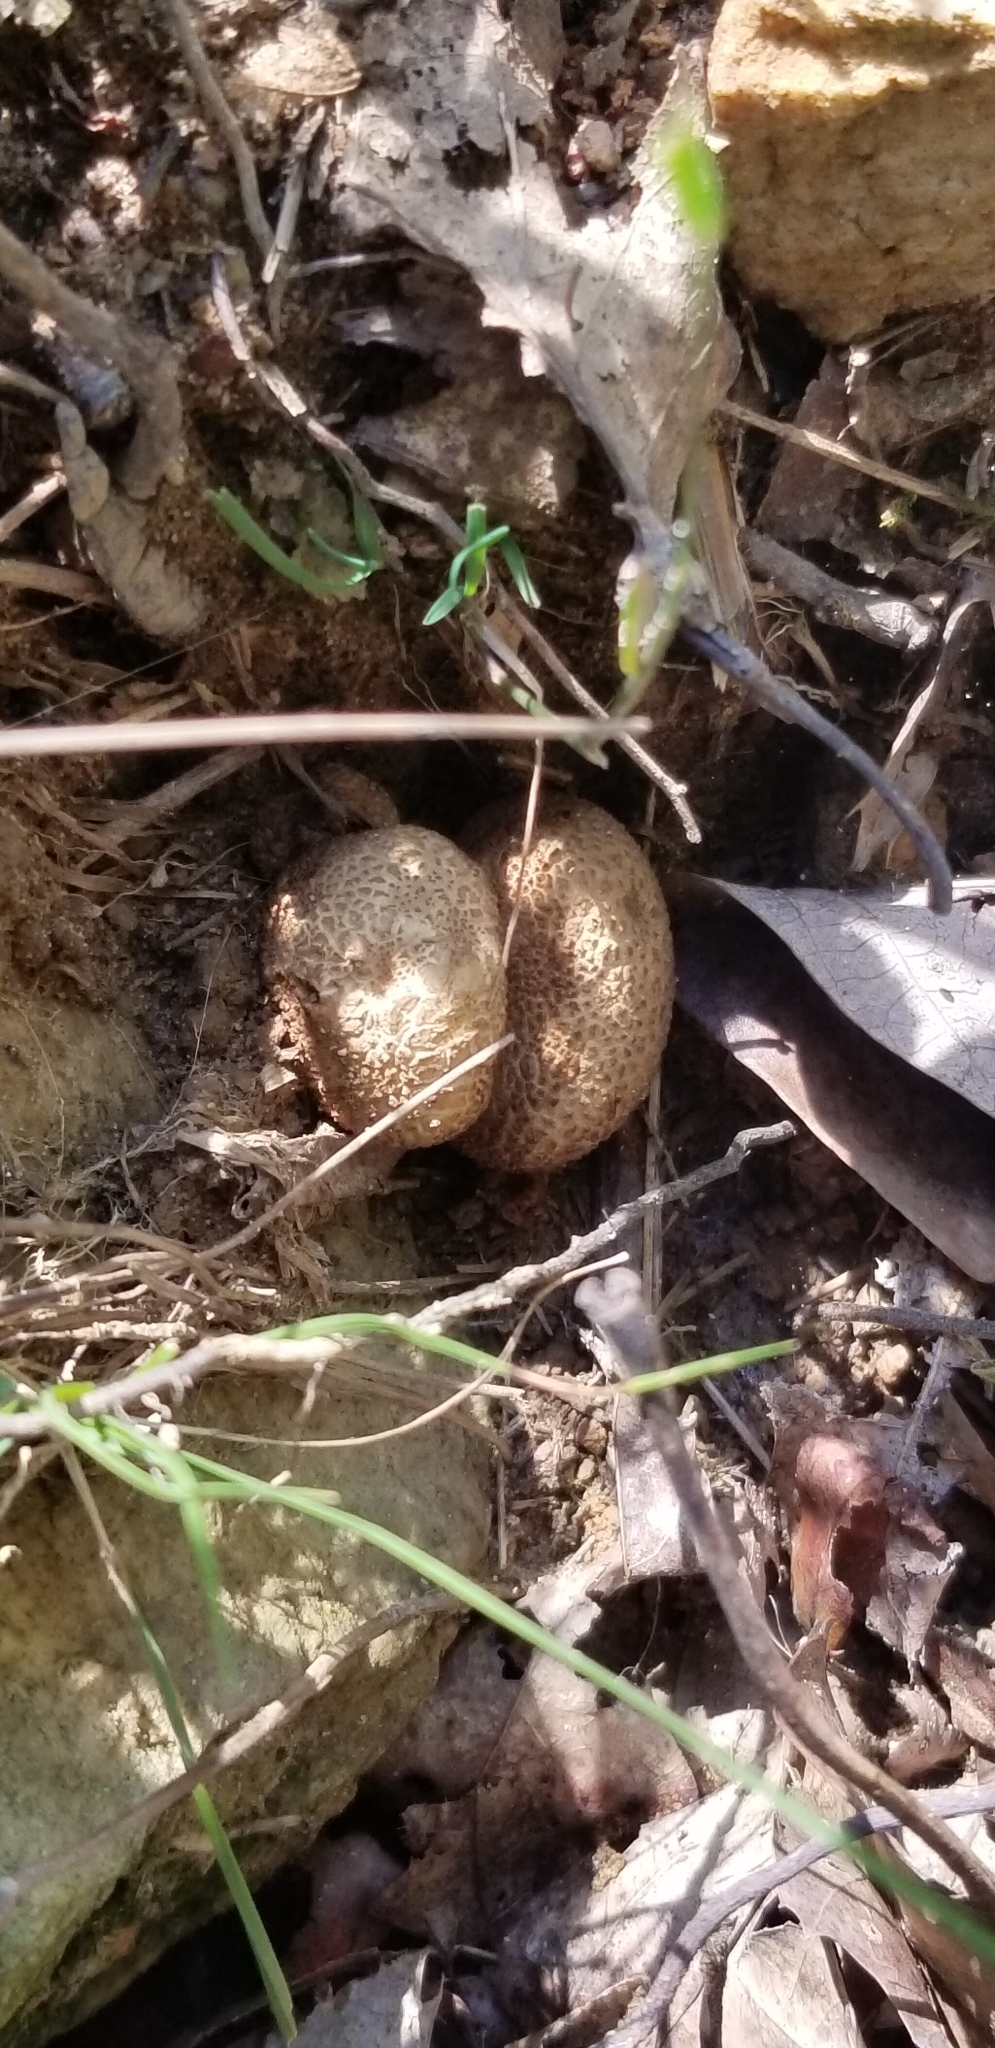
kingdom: Fungi
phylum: Basidiomycota
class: Agaricomycetes
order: Boletales
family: Sclerodermataceae
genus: Scleroderma
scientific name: Scleroderma citrinum
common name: Common earthball
